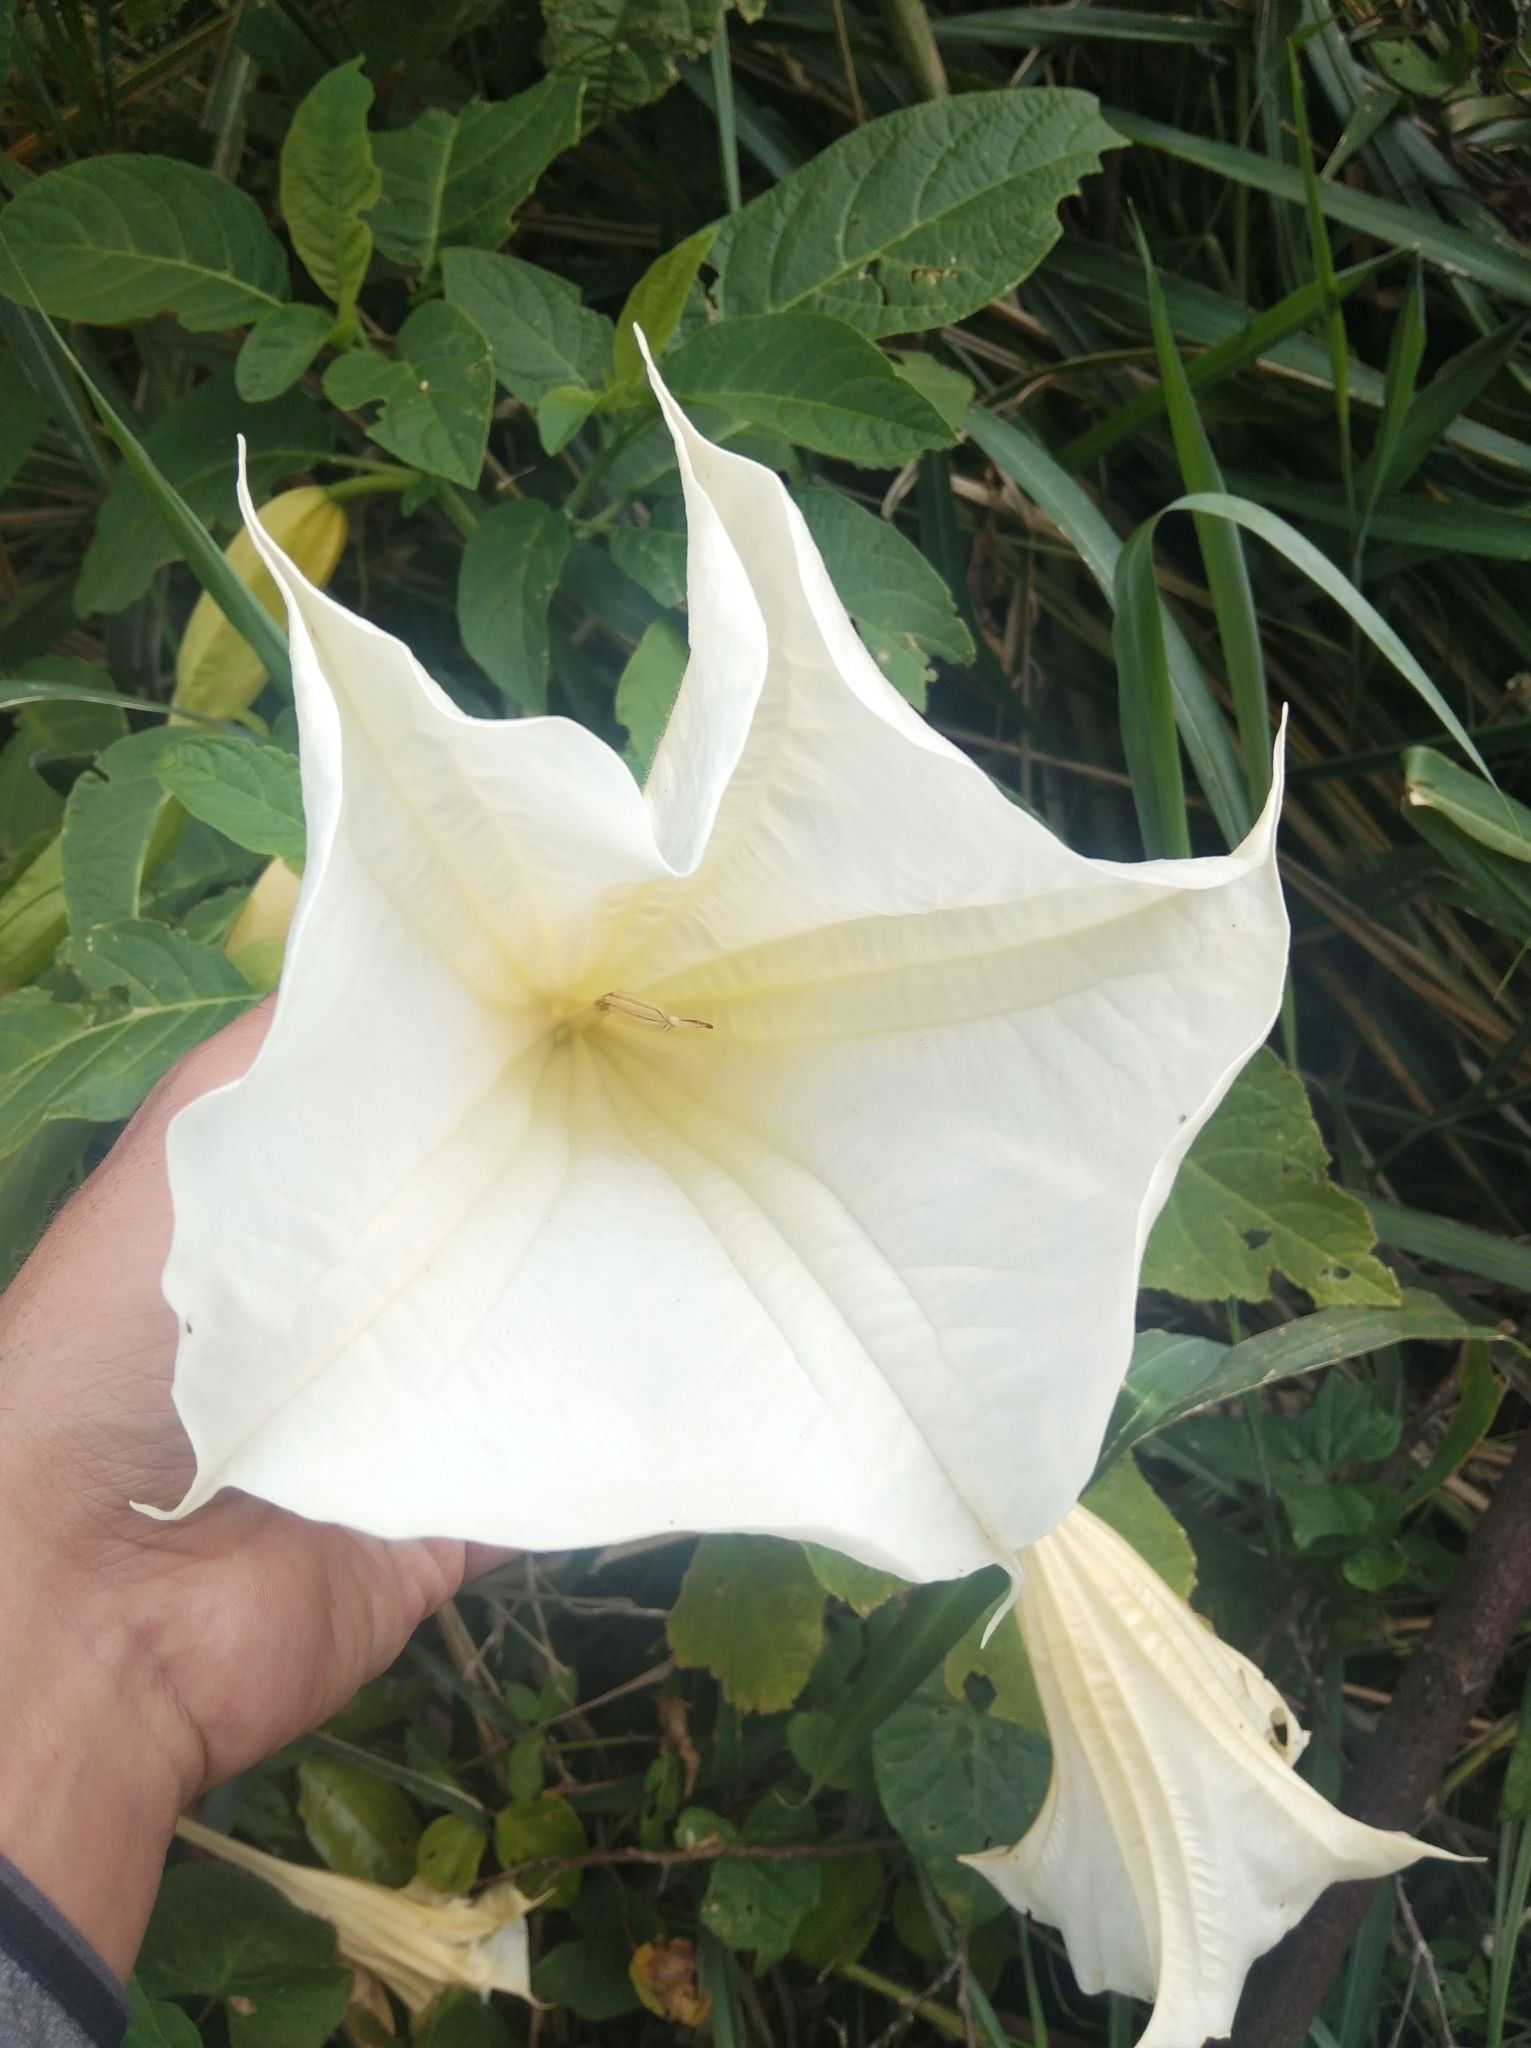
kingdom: Plantae
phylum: Tracheophyta
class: Magnoliopsida
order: Solanales
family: Solanaceae
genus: Brugmansia
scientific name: Brugmansia suaveolens
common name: Angel's tears
